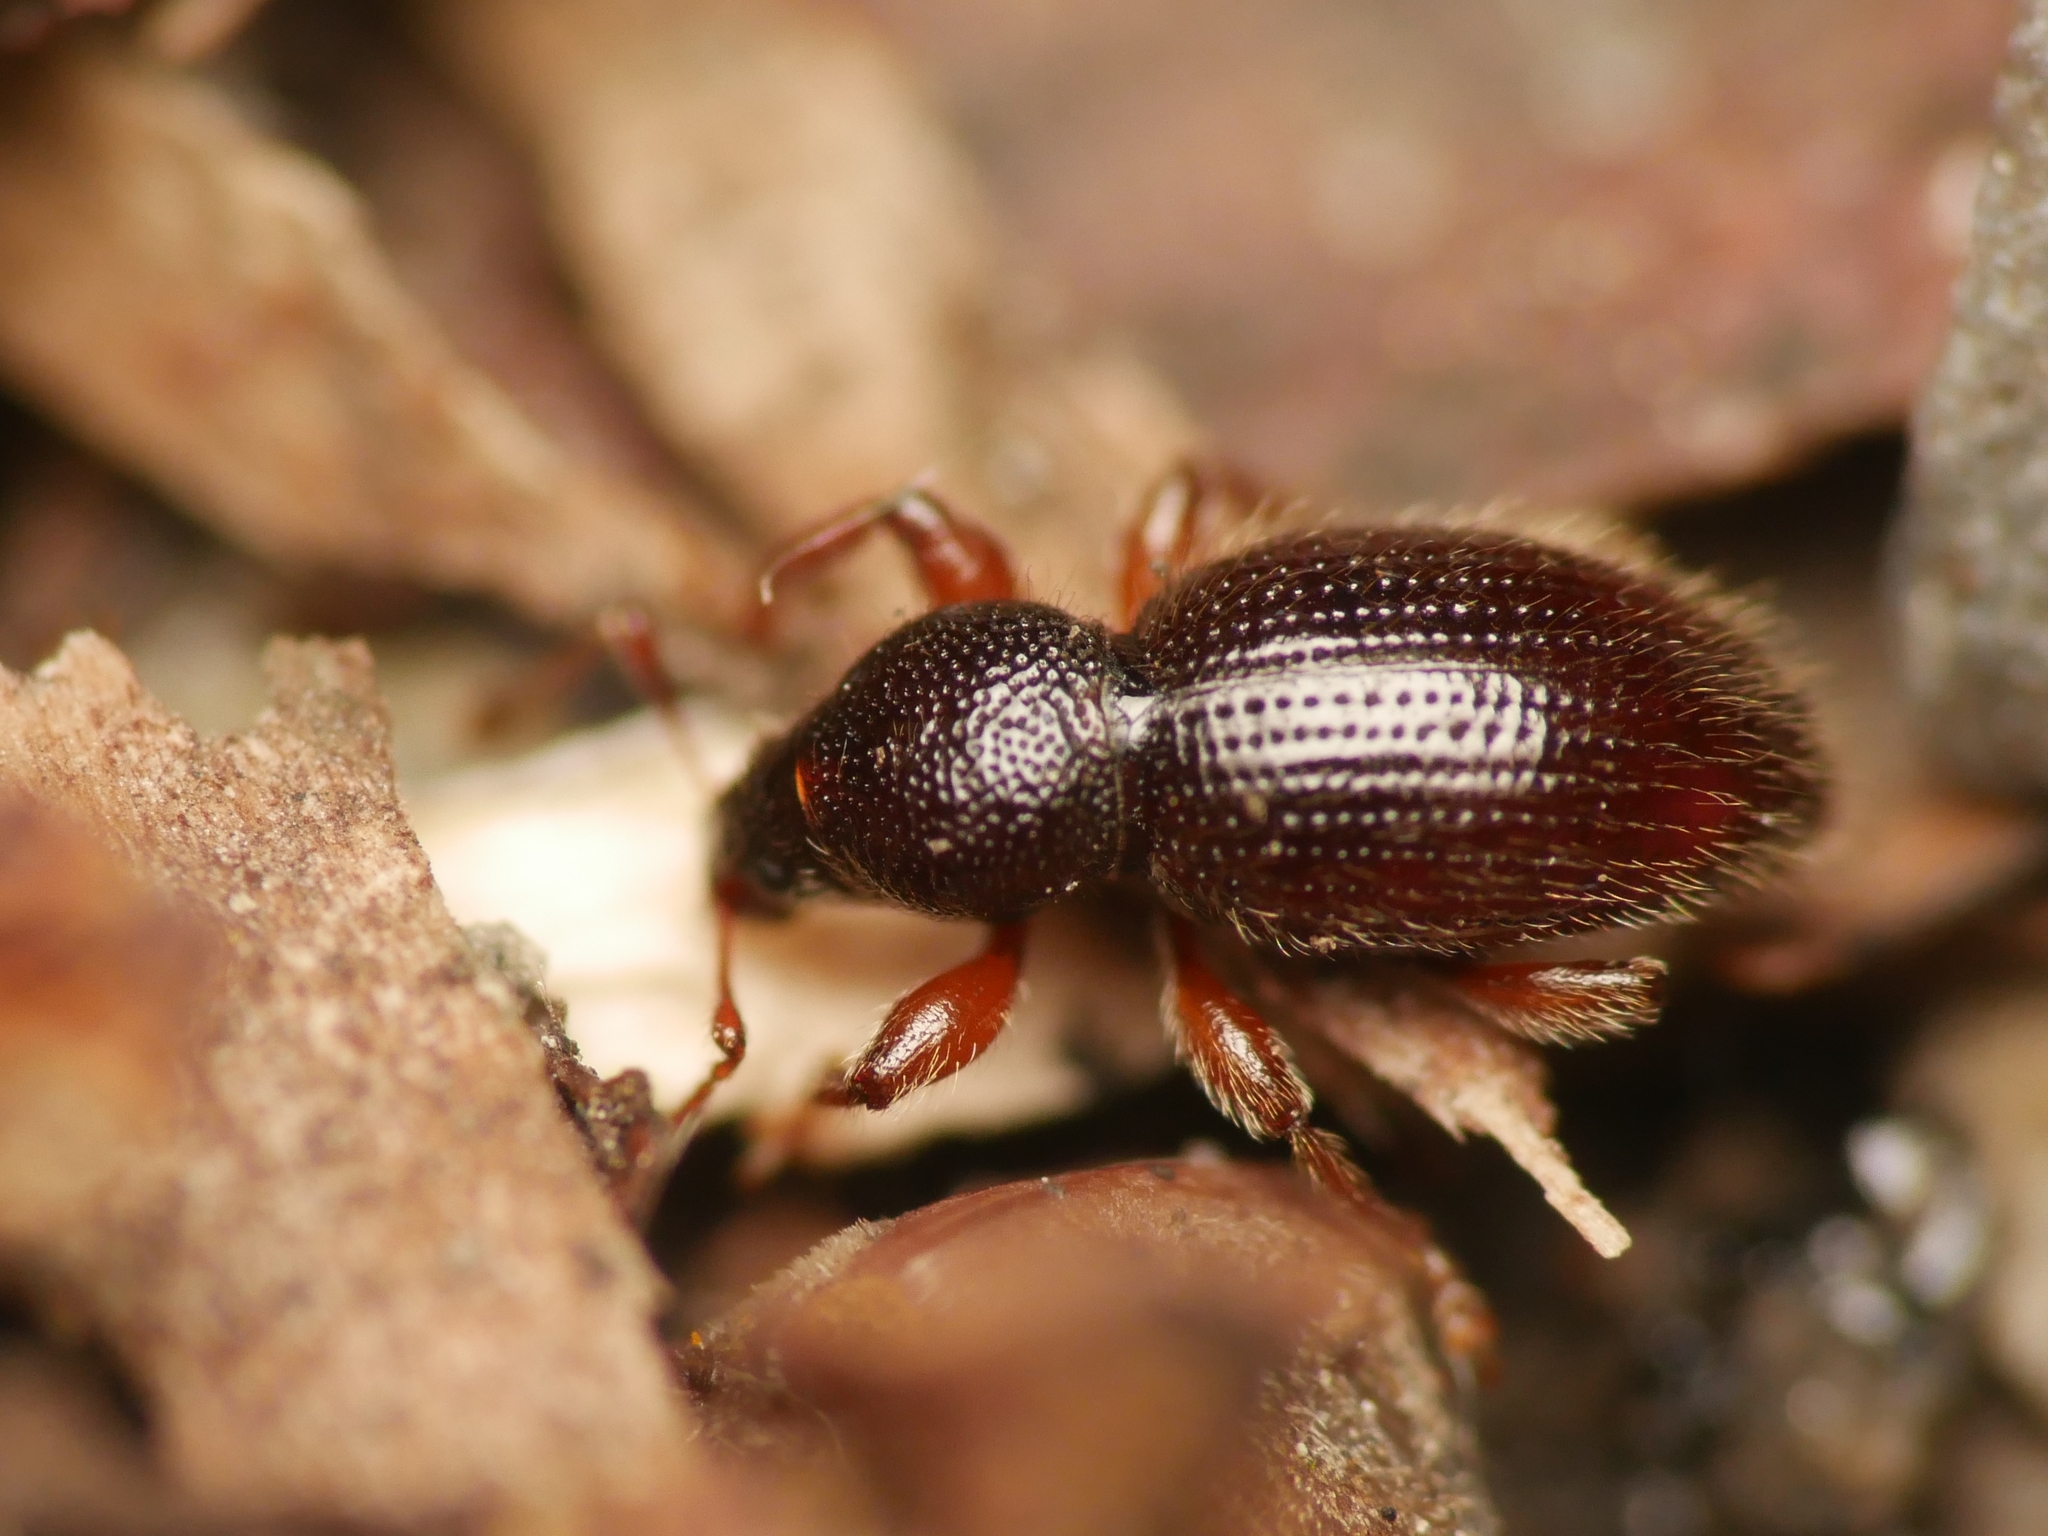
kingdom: Animalia
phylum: Arthropoda
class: Insecta
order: Coleoptera
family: Curculionidae
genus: Exomias
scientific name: Exomias pellucidus
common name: Hairy spider weevil
